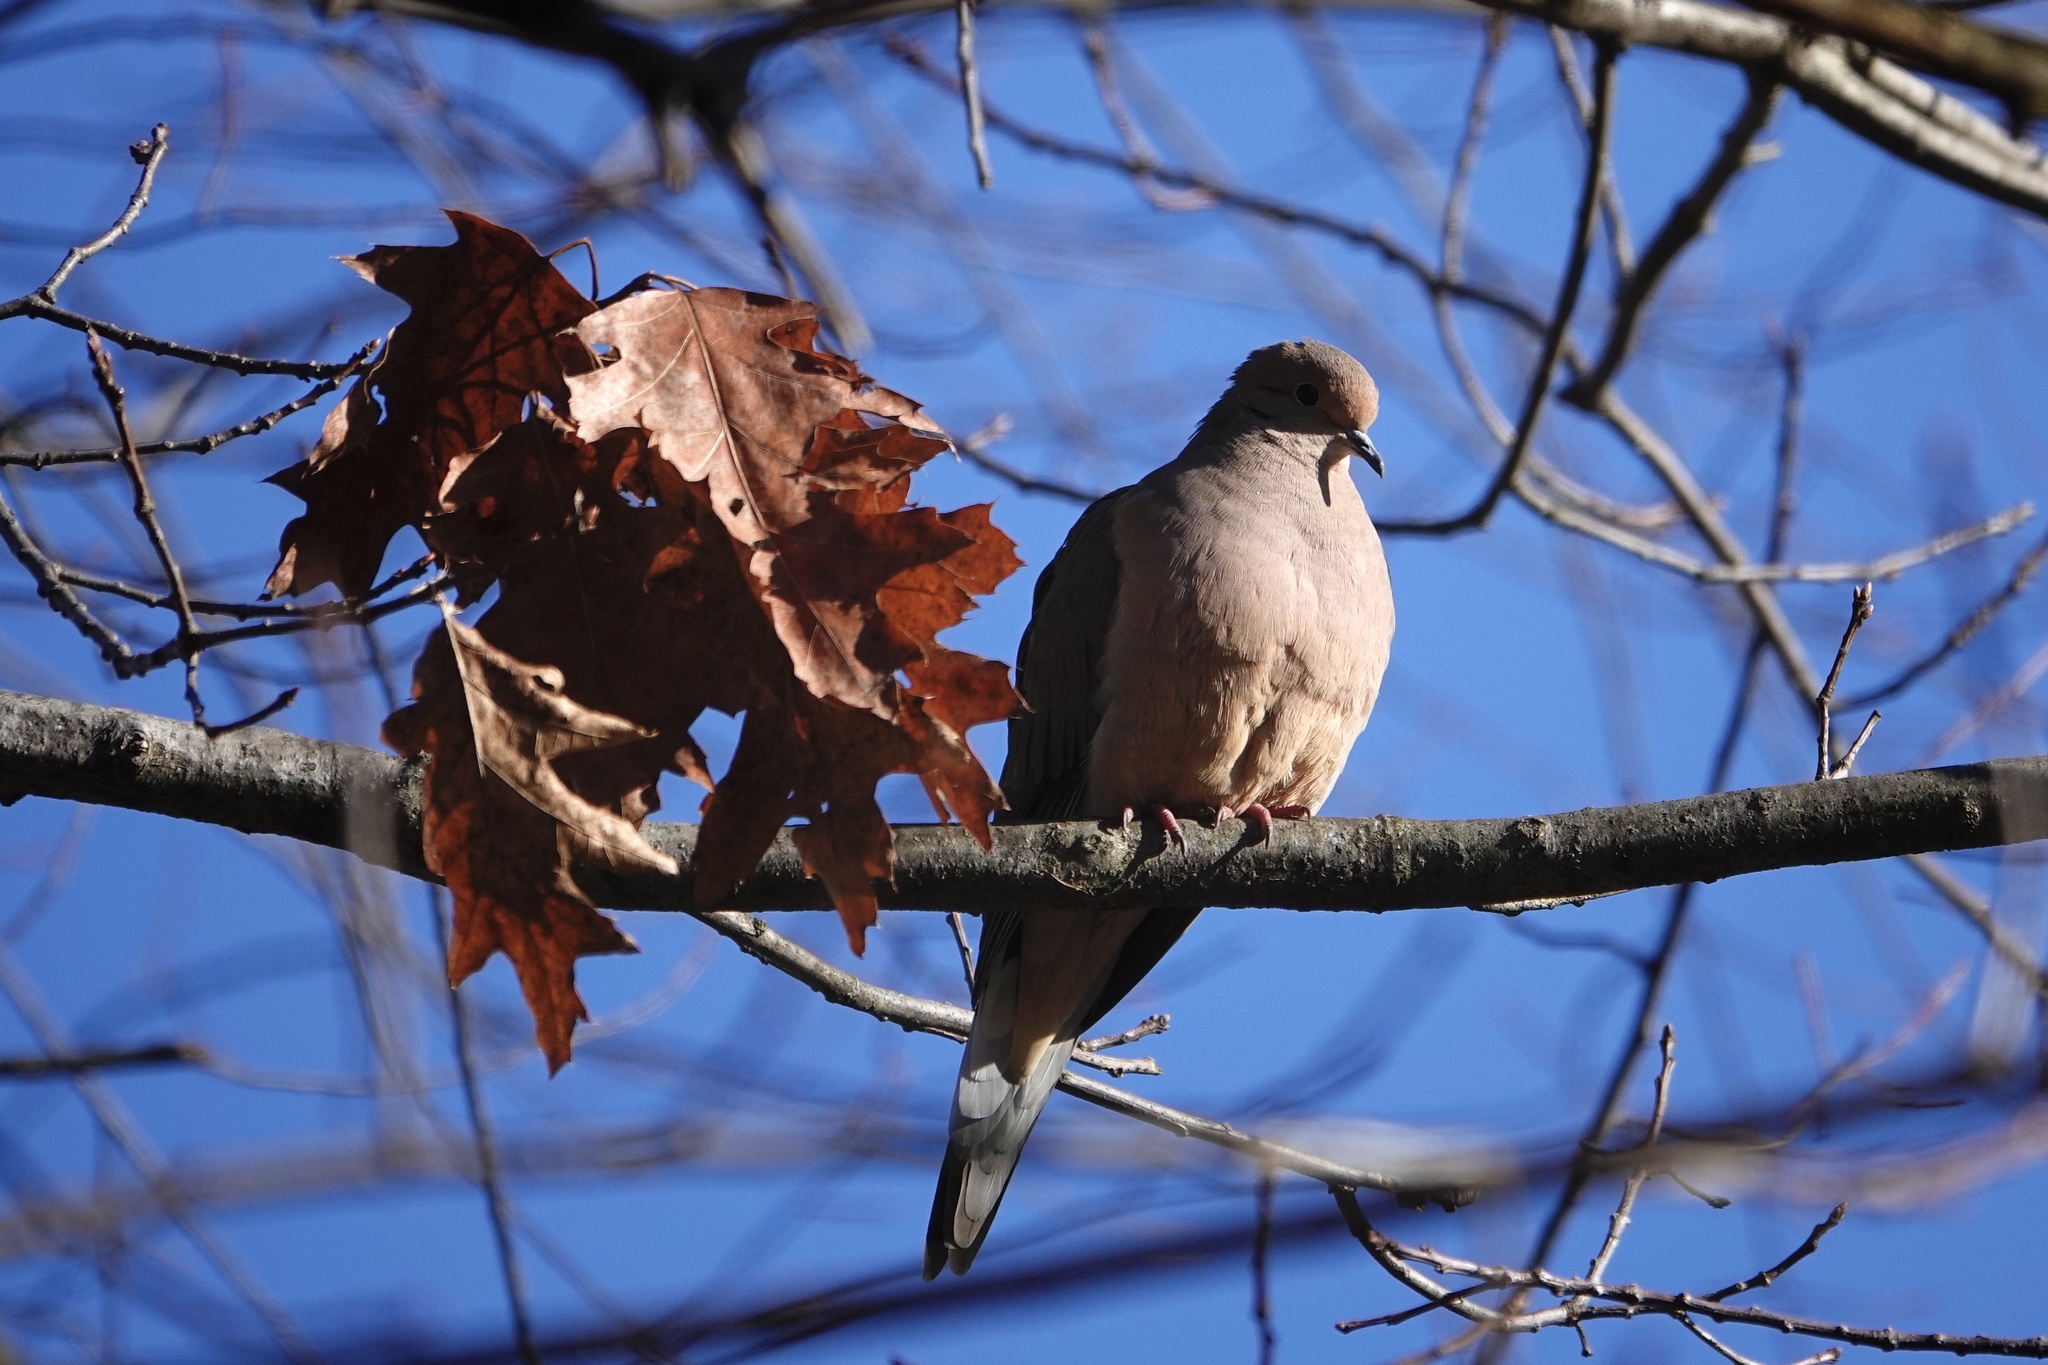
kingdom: Animalia
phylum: Chordata
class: Aves
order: Columbiformes
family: Columbidae
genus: Zenaida
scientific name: Zenaida macroura
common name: Mourning dove
